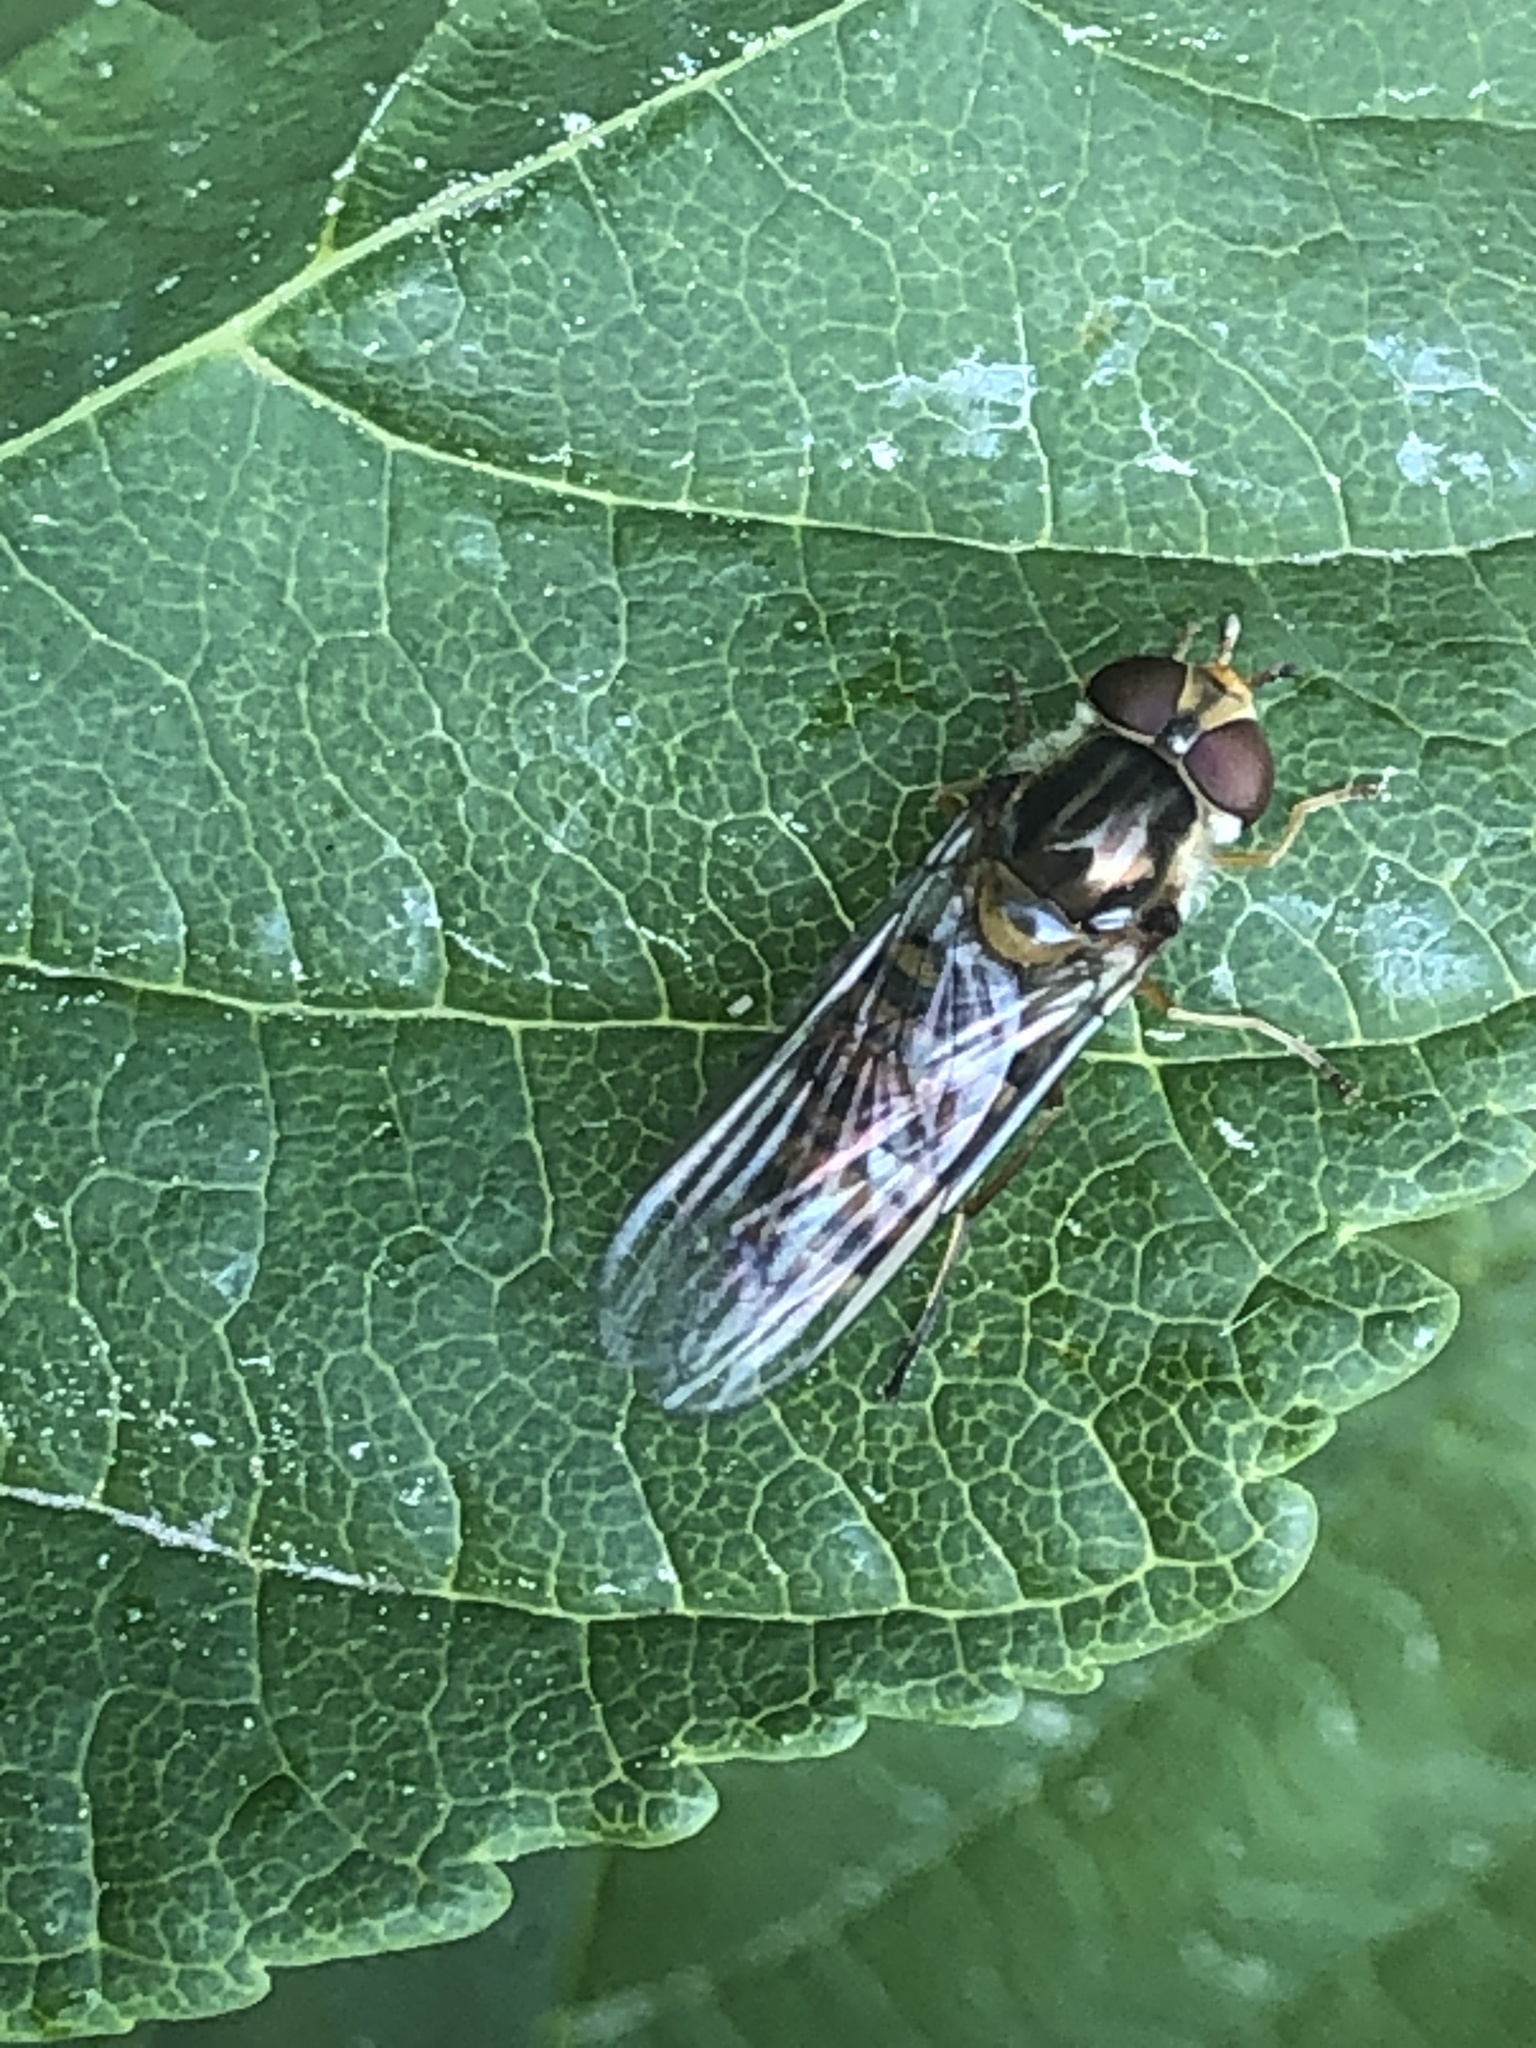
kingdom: Animalia
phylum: Arthropoda
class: Insecta
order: Diptera
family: Syrphidae
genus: Episyrphus
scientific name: Episyrphus balteatus
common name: Marmalade hoverfly
